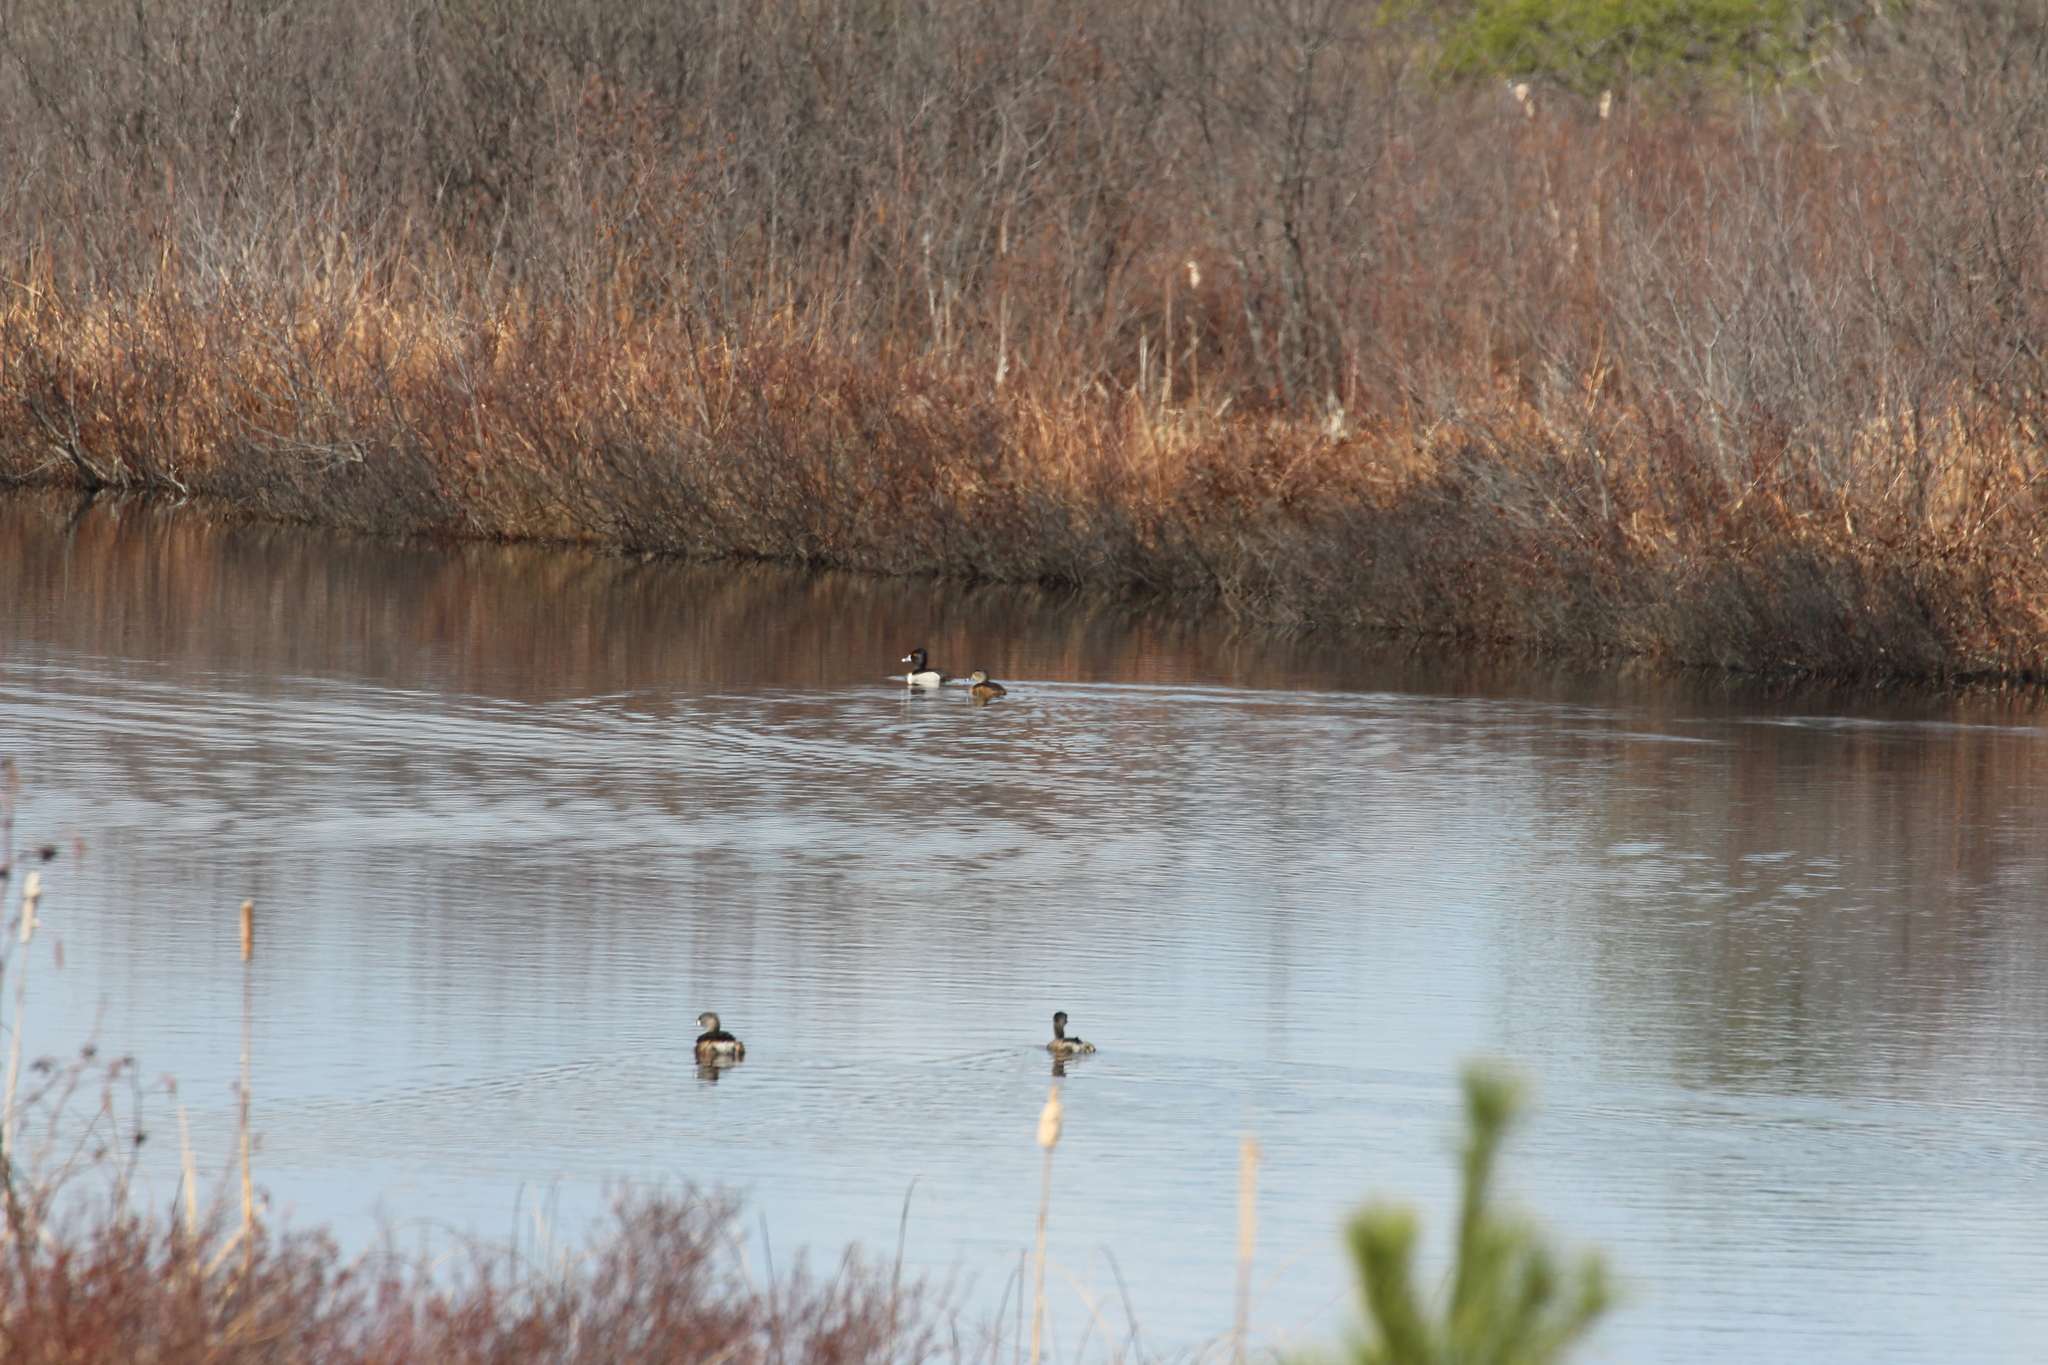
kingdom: Animalia
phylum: Chordata
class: Aves
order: Podicipediformes
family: Podicipedidae
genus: Podilymbus
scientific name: Podilymbus podiceps
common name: Pied-billed grebe
